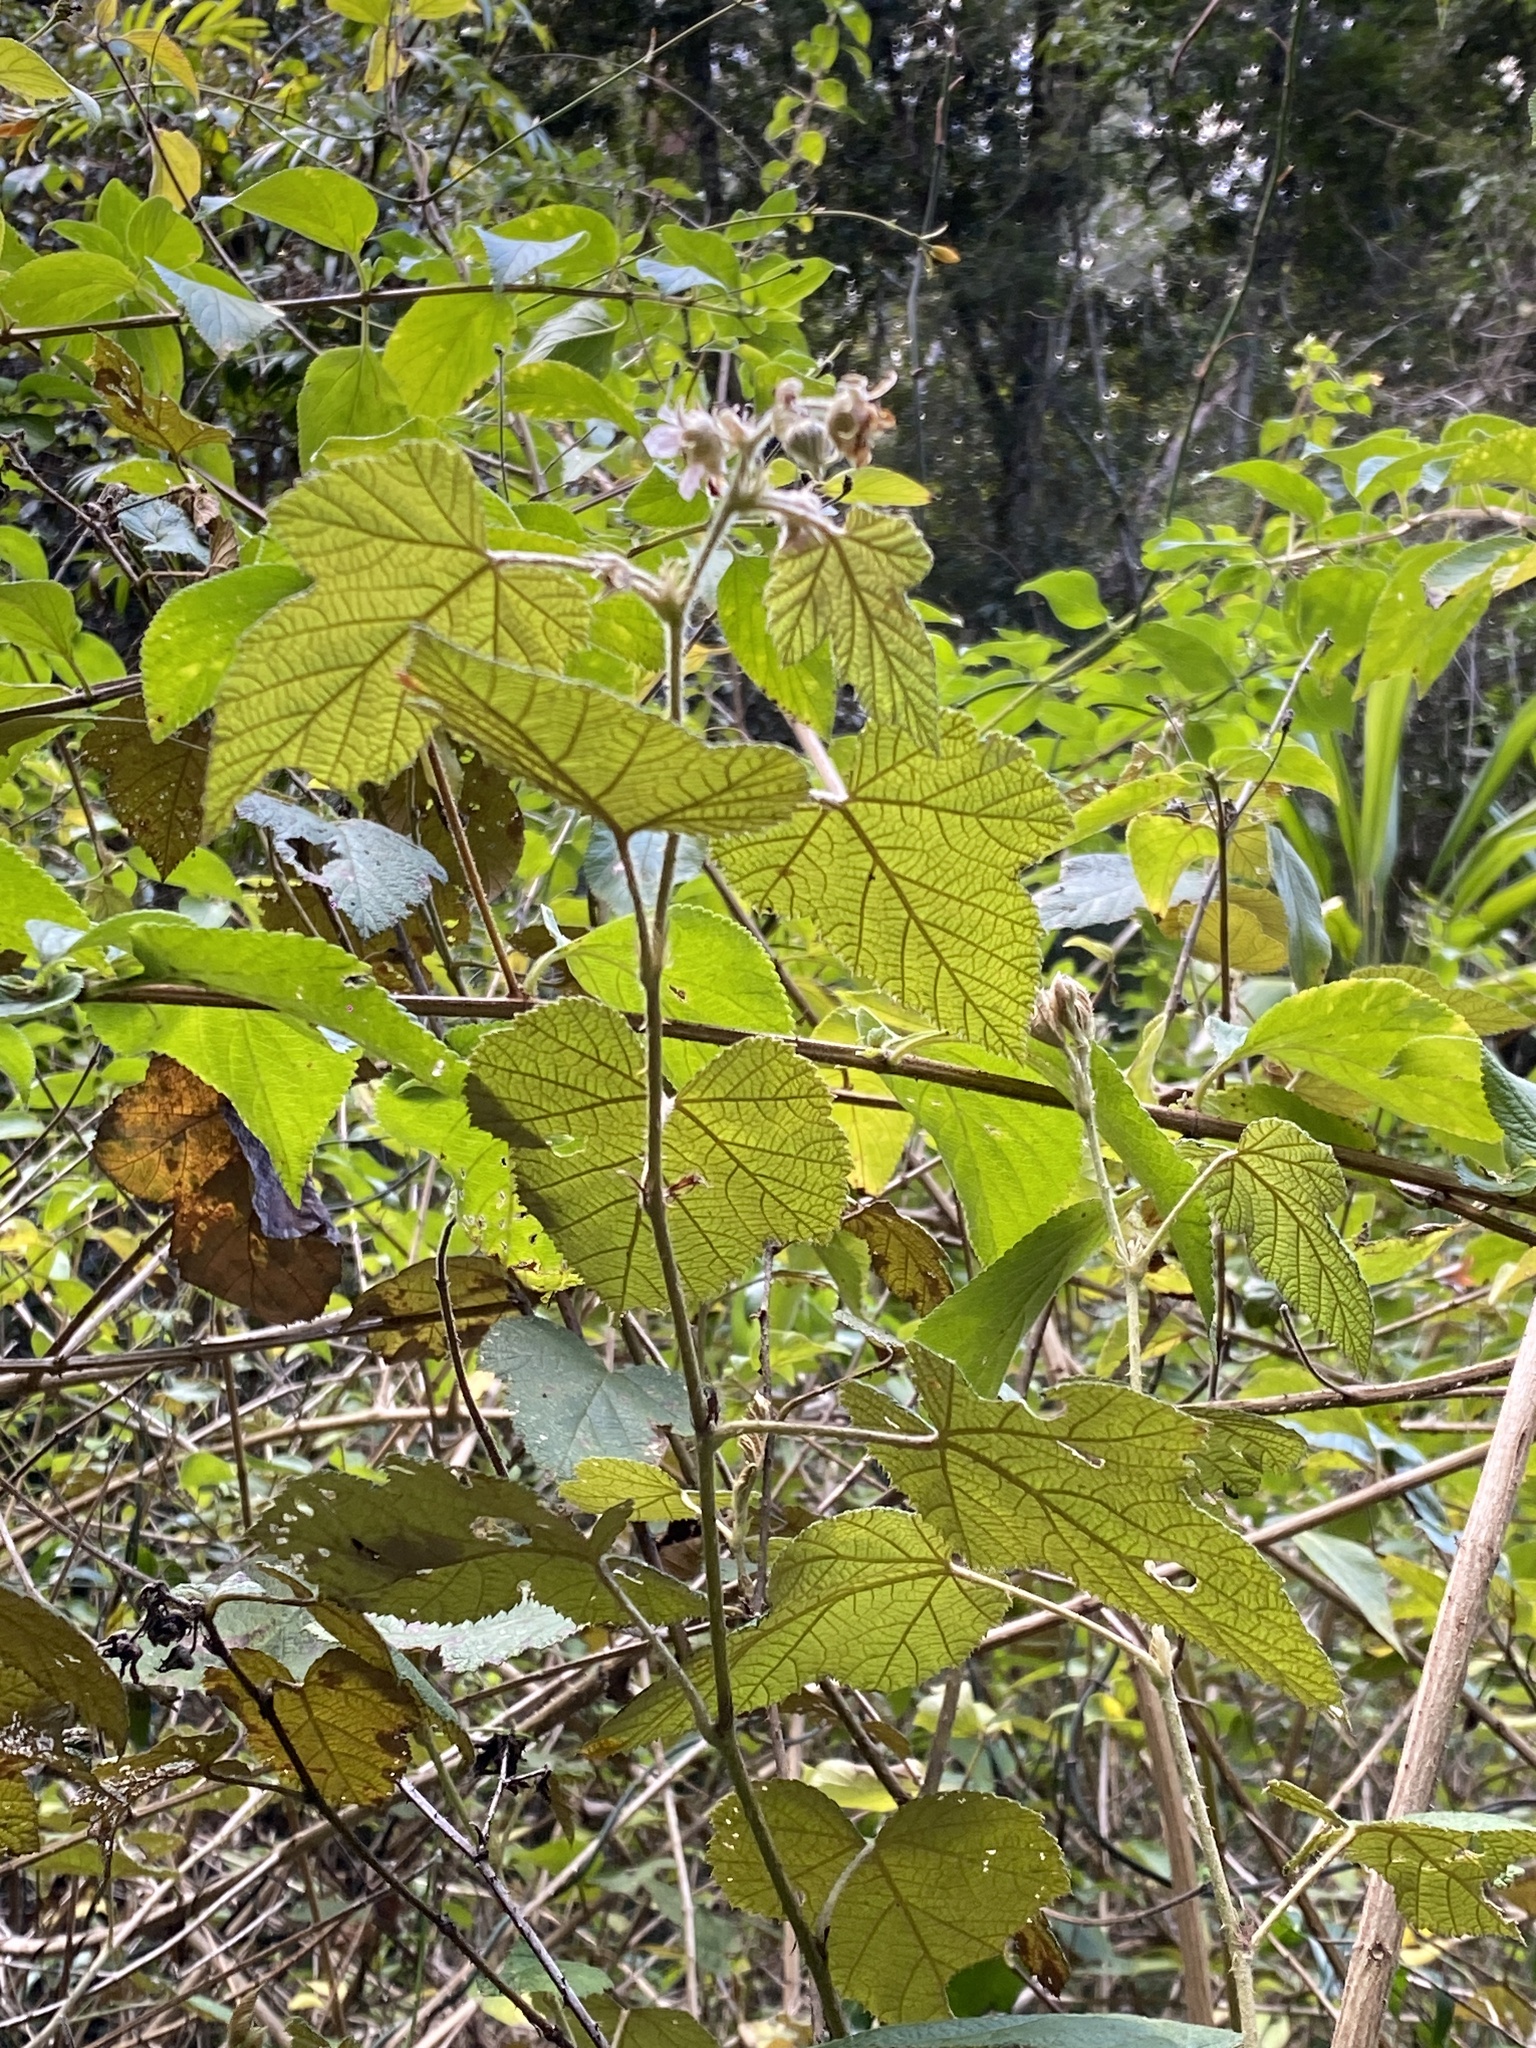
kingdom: Plantae
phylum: Tracheophyta
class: Magnoliopsida
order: Rosales
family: Rosaceae
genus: Rubus
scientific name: Rubus moluccanus
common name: Wild raspberry
